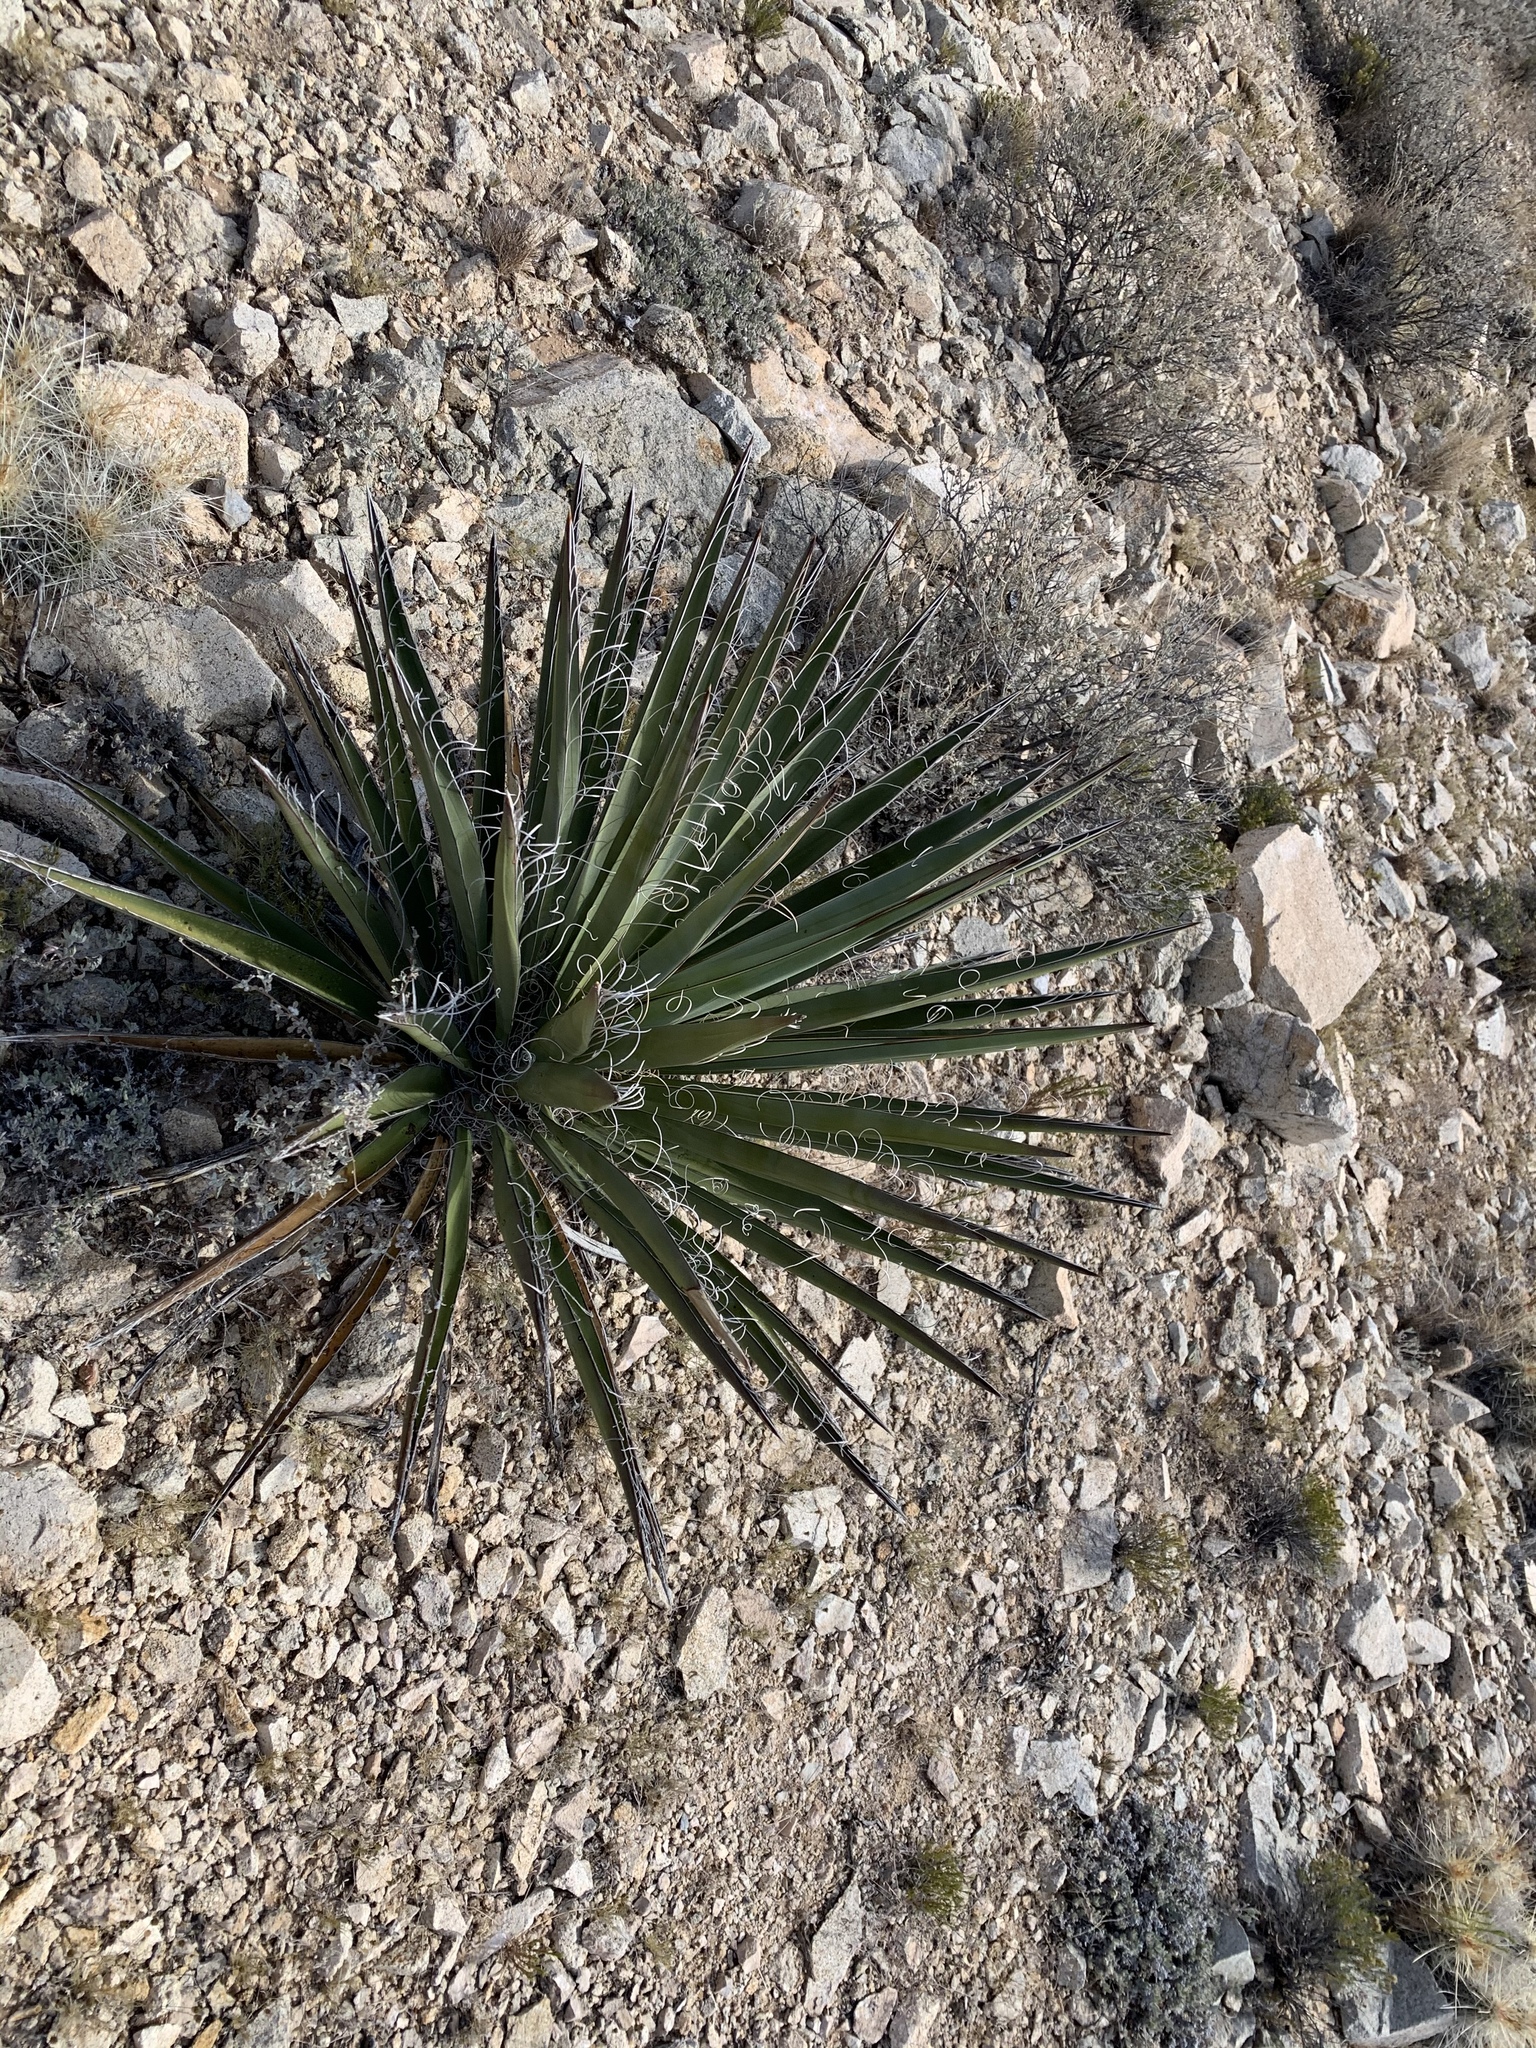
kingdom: Plantae
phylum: Tracheophyta
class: Liliopsida
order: Asparagales
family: Asparagaceae
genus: Yucca
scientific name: Yucca baccata
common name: Banana yucca
